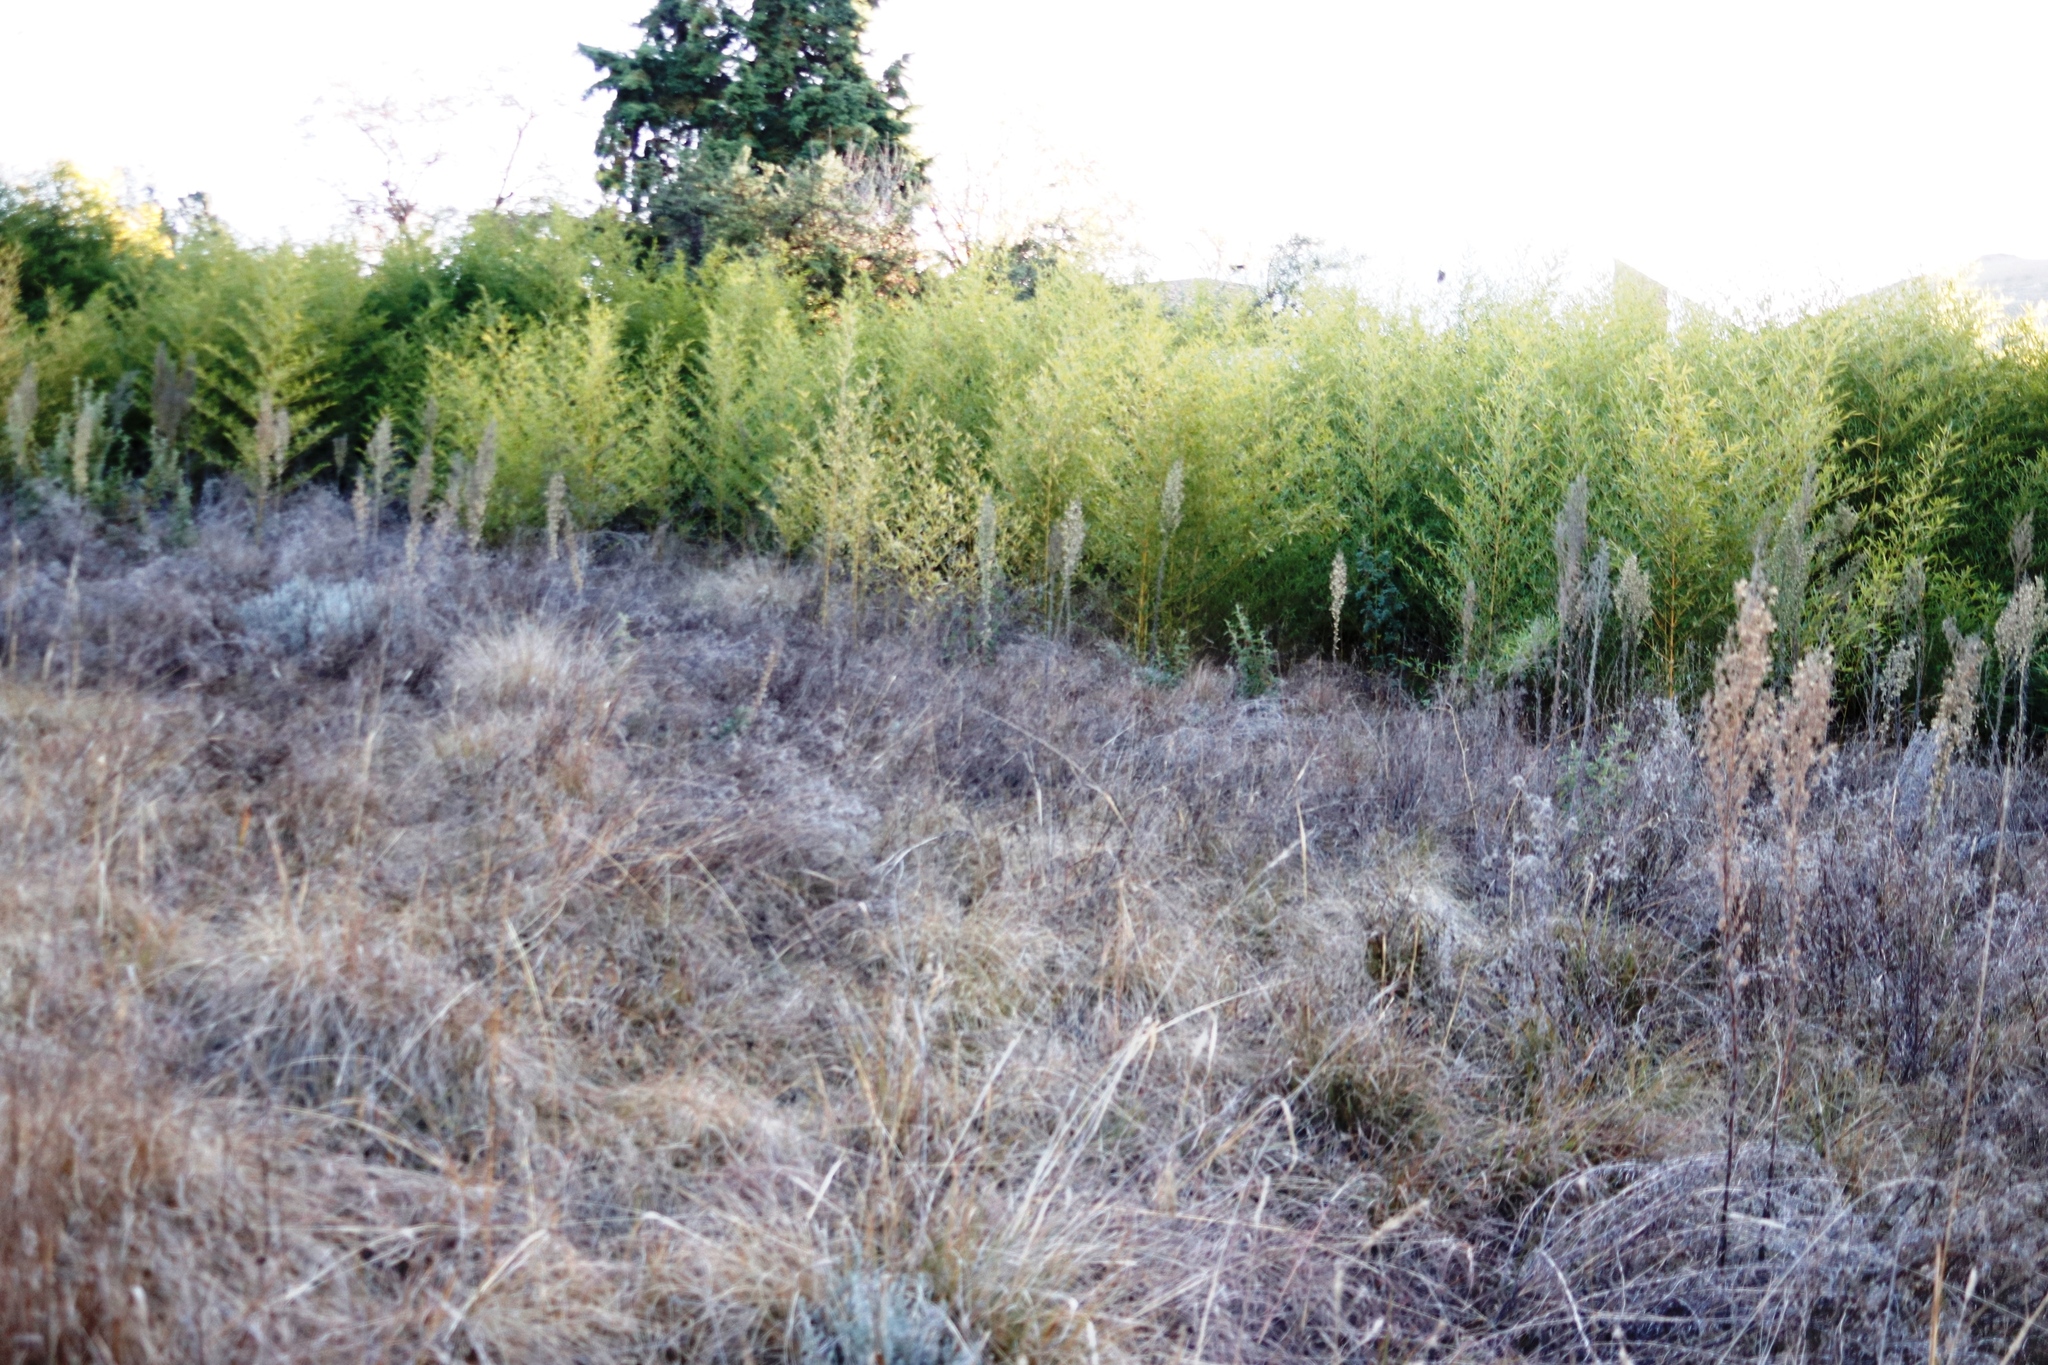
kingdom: Plantae
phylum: Tracheophyta
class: Liliopsida
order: Poales
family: Poaceae
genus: Phyllostachys
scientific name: Phyllostachys aurea
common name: Golden bamboo
